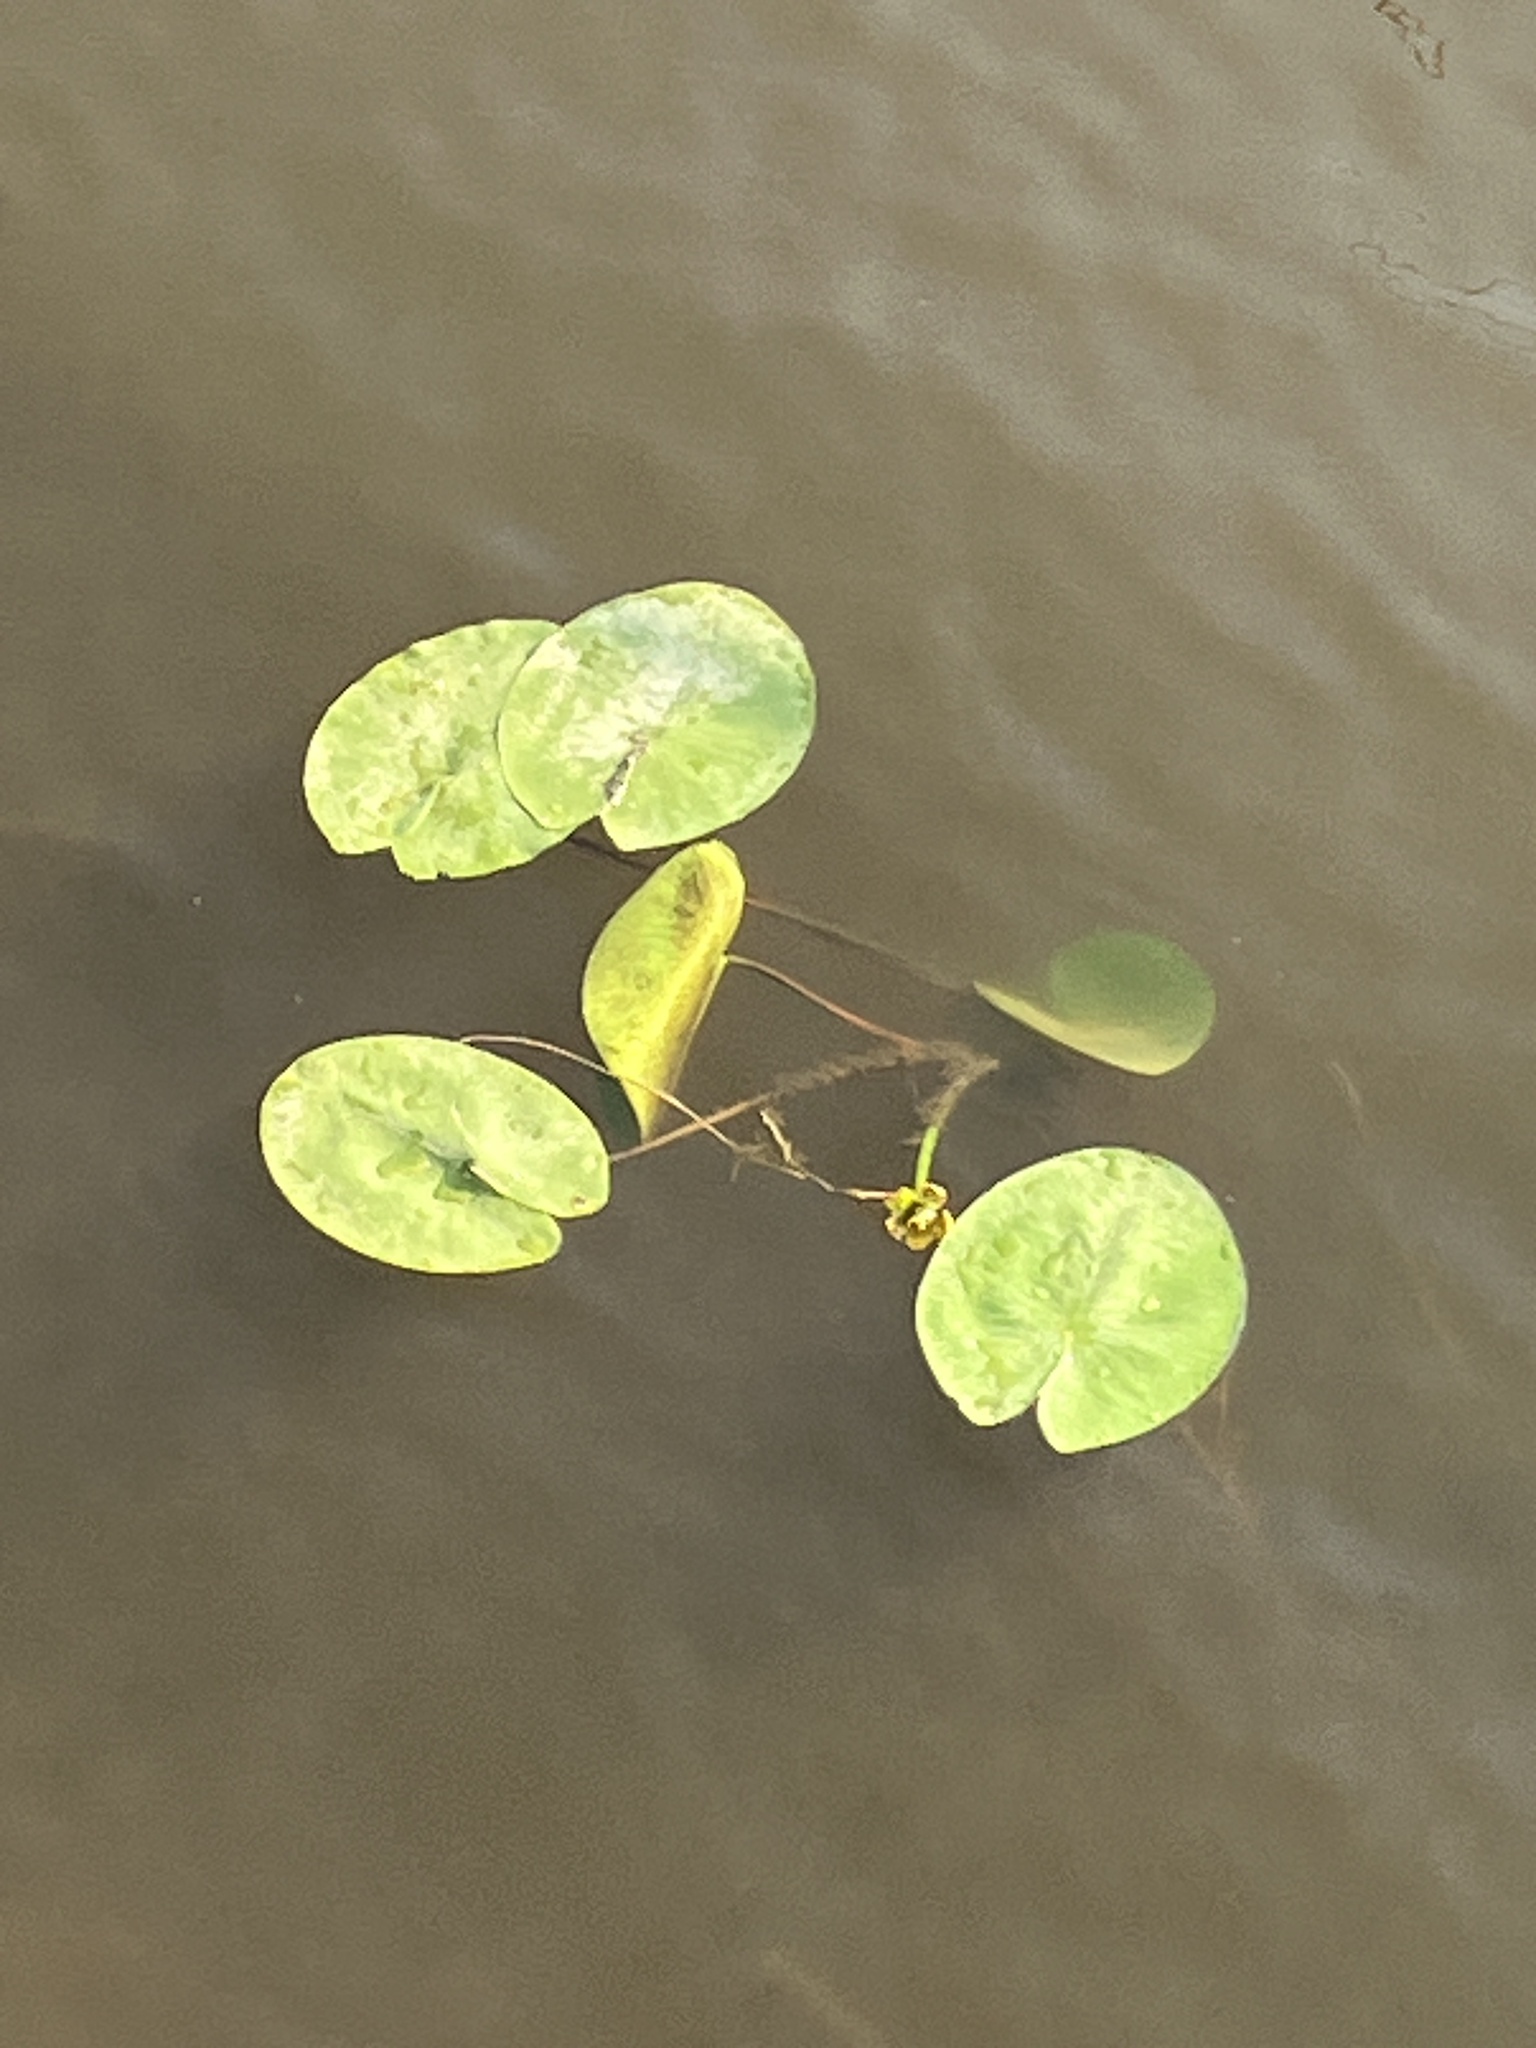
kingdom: Plantae
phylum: Tracheophyta
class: Magnoliopsida
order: Nymphaeales
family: Nymphaeaceae
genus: Nuphar
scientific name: Nuphar lutea
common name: Yellow water-lily
